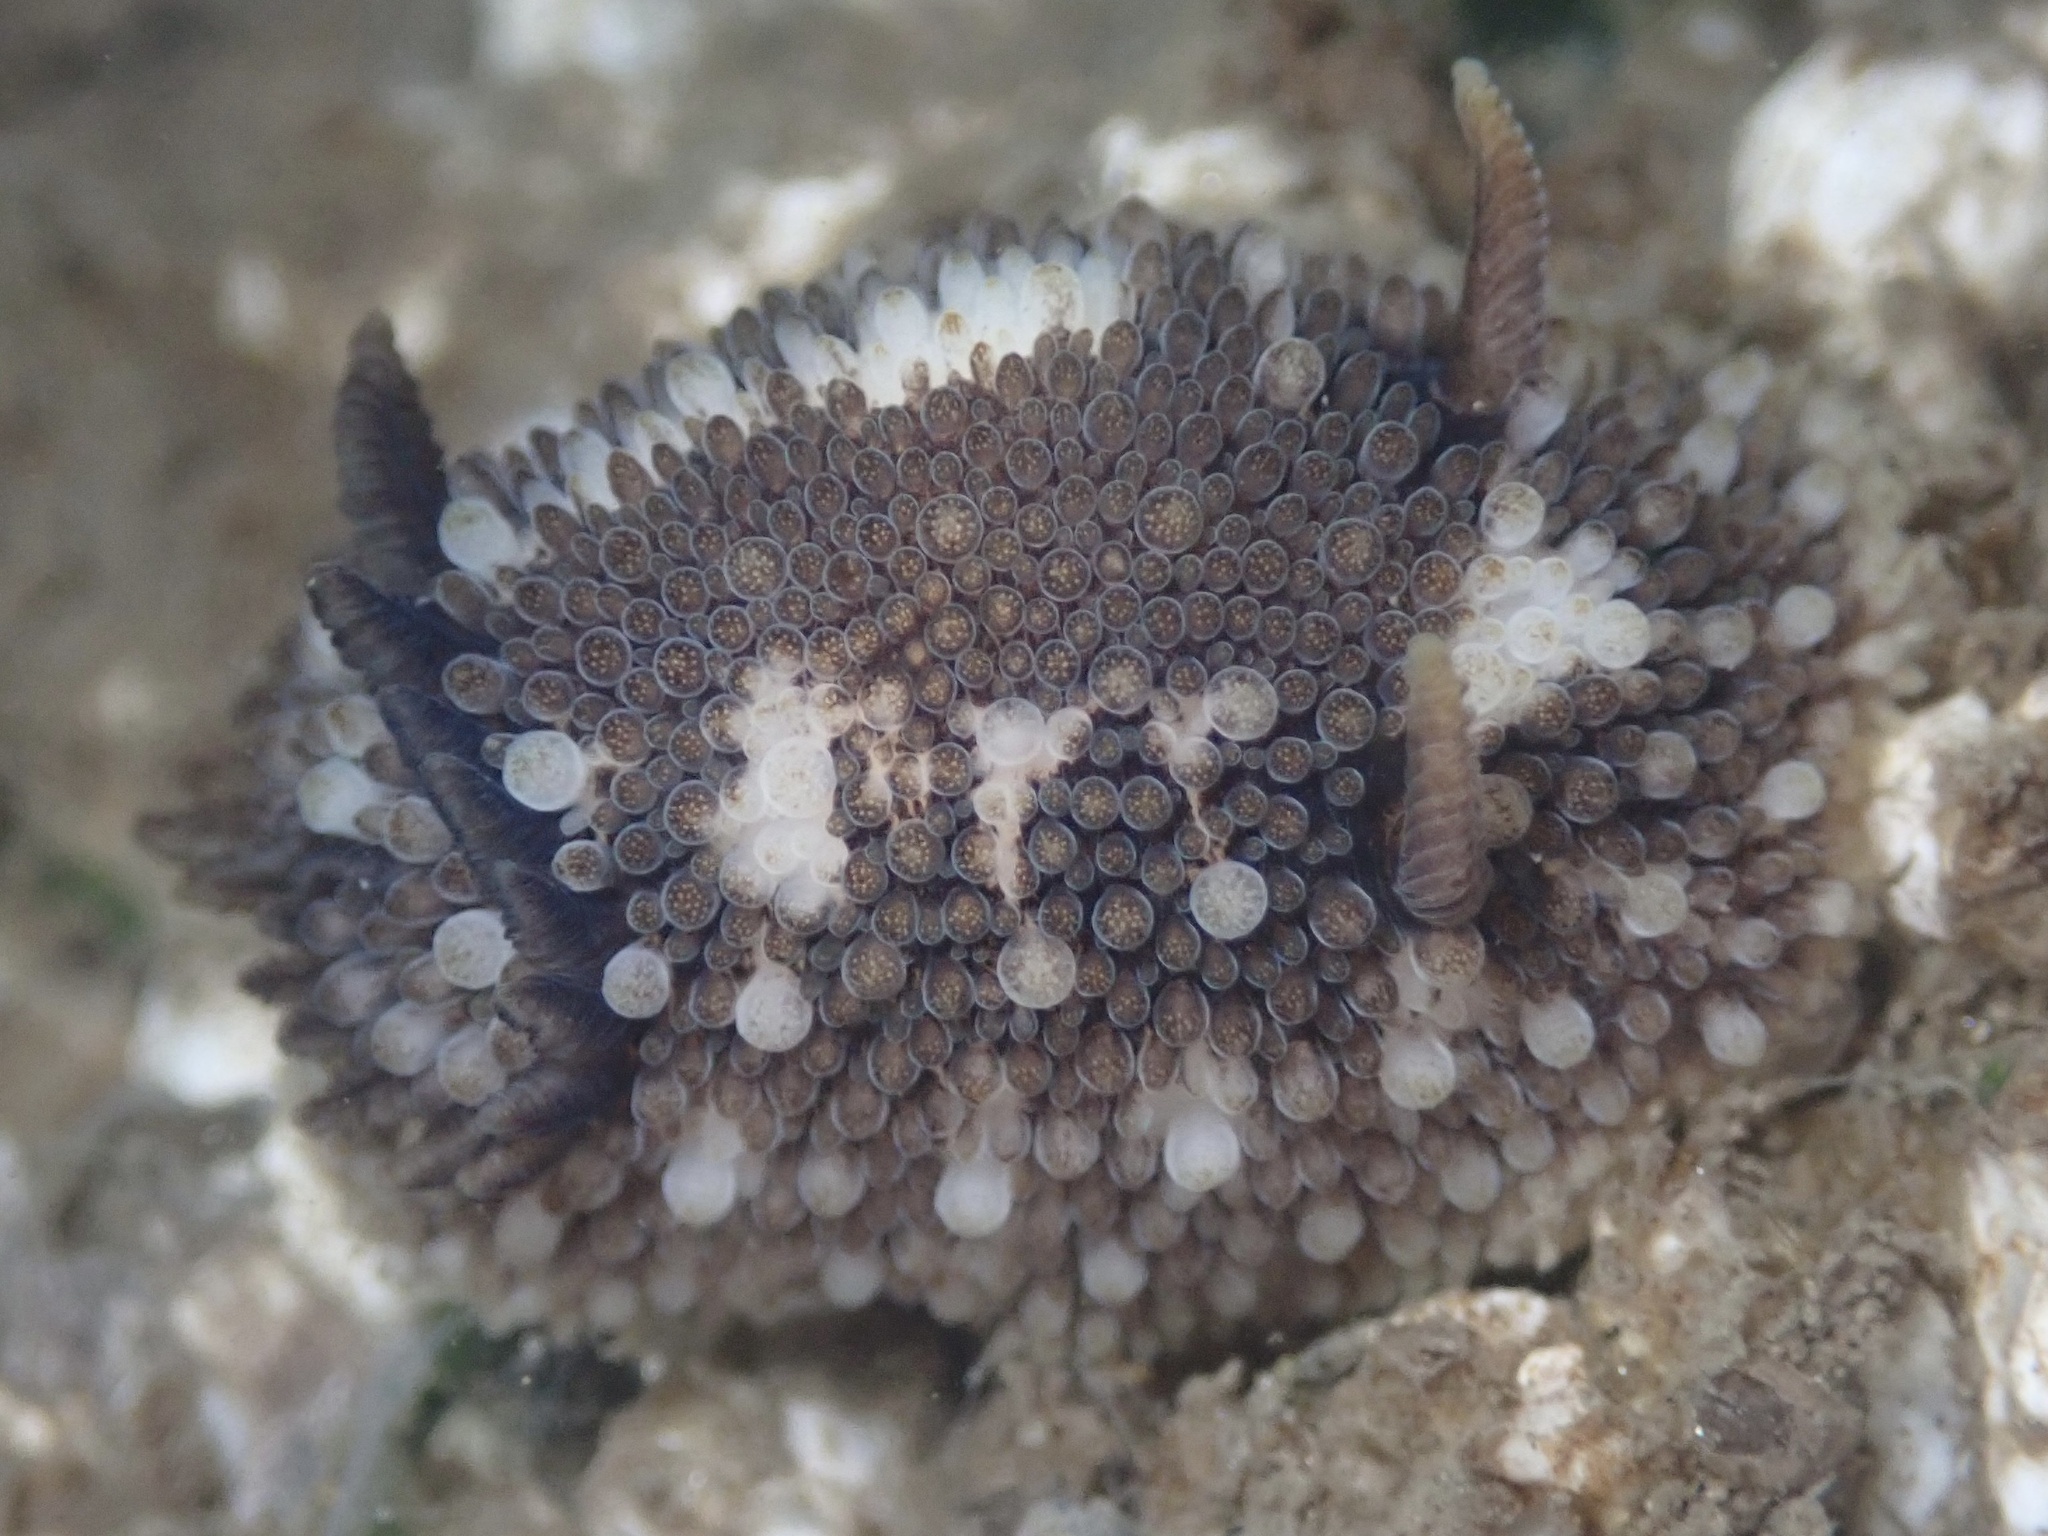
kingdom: Animalia
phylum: Mollusca
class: Gastropoda
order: Nudibranchia
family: Onchidorididae
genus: Onchidoris
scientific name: Onchidoris bilamellata
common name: Barnacle-eating onchidoris
